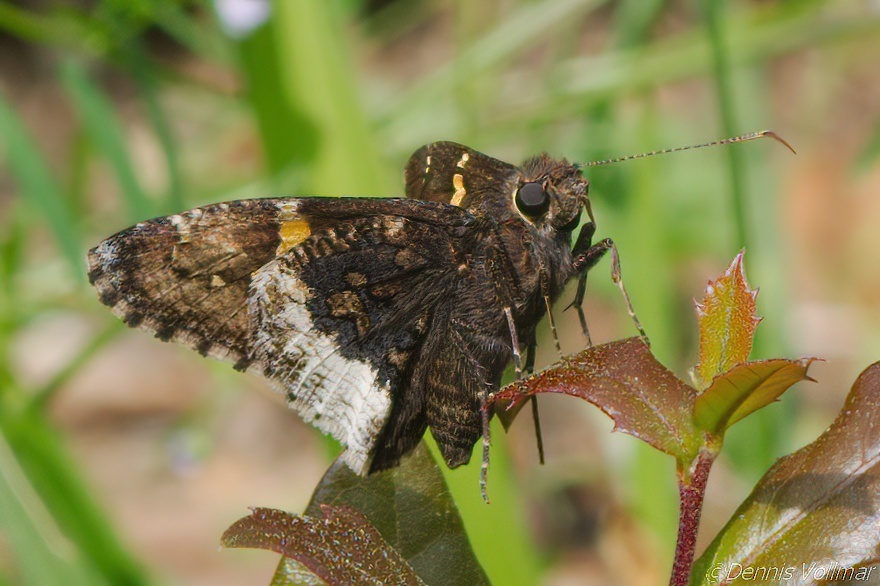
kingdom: Animalia
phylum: Arthropoda
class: Insecta
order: Lepidoptera
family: Hesperiidae
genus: Thorybes
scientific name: Thorybes lyciades
